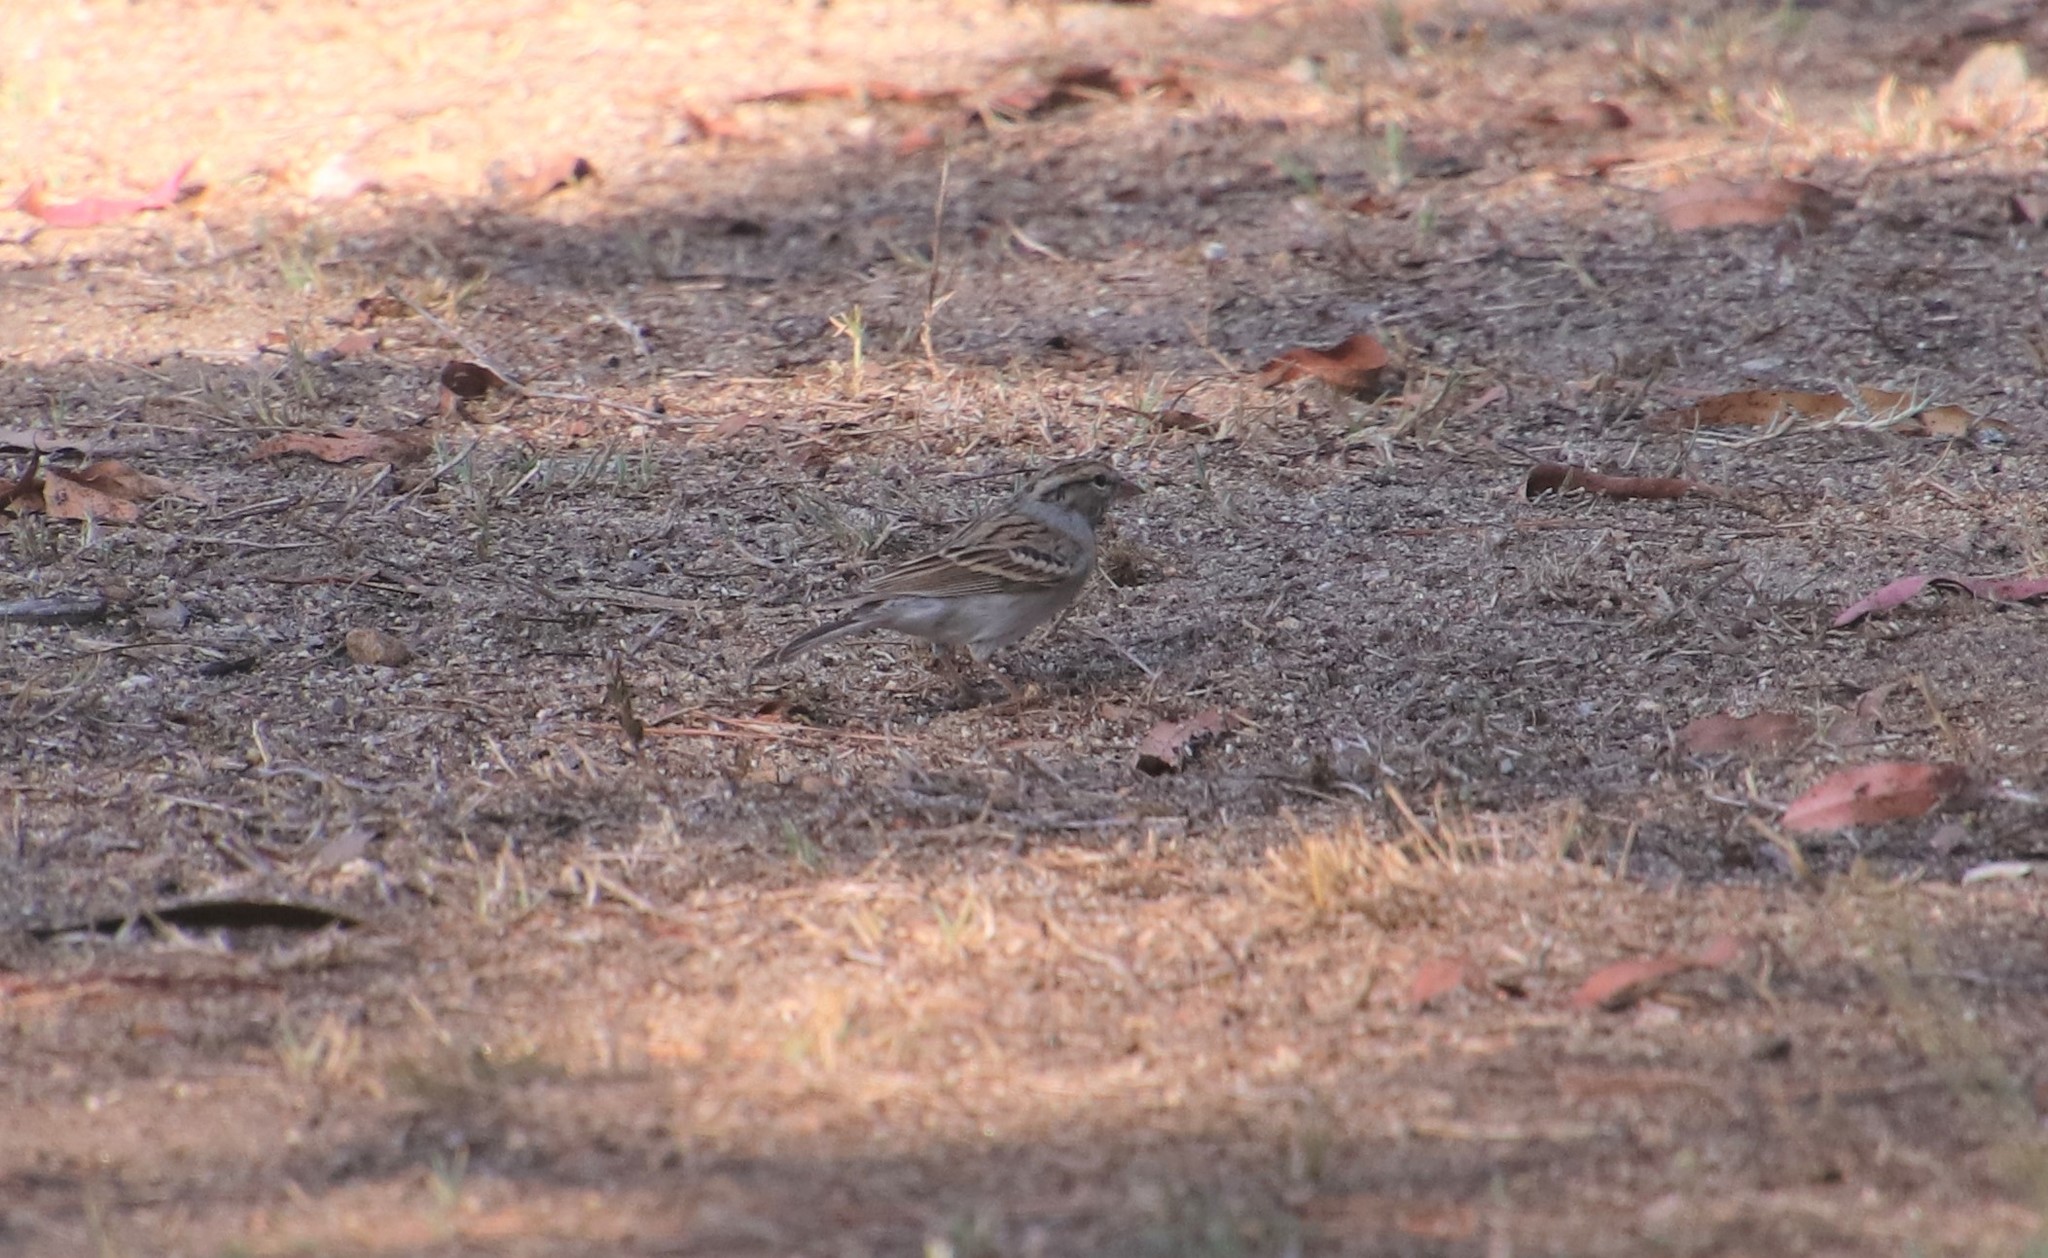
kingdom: Animalia
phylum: Chordata
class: Aves
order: Passeriformes
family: Passerellidae
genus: Spizella
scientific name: Spizella passerina
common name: Chipping sparrow
